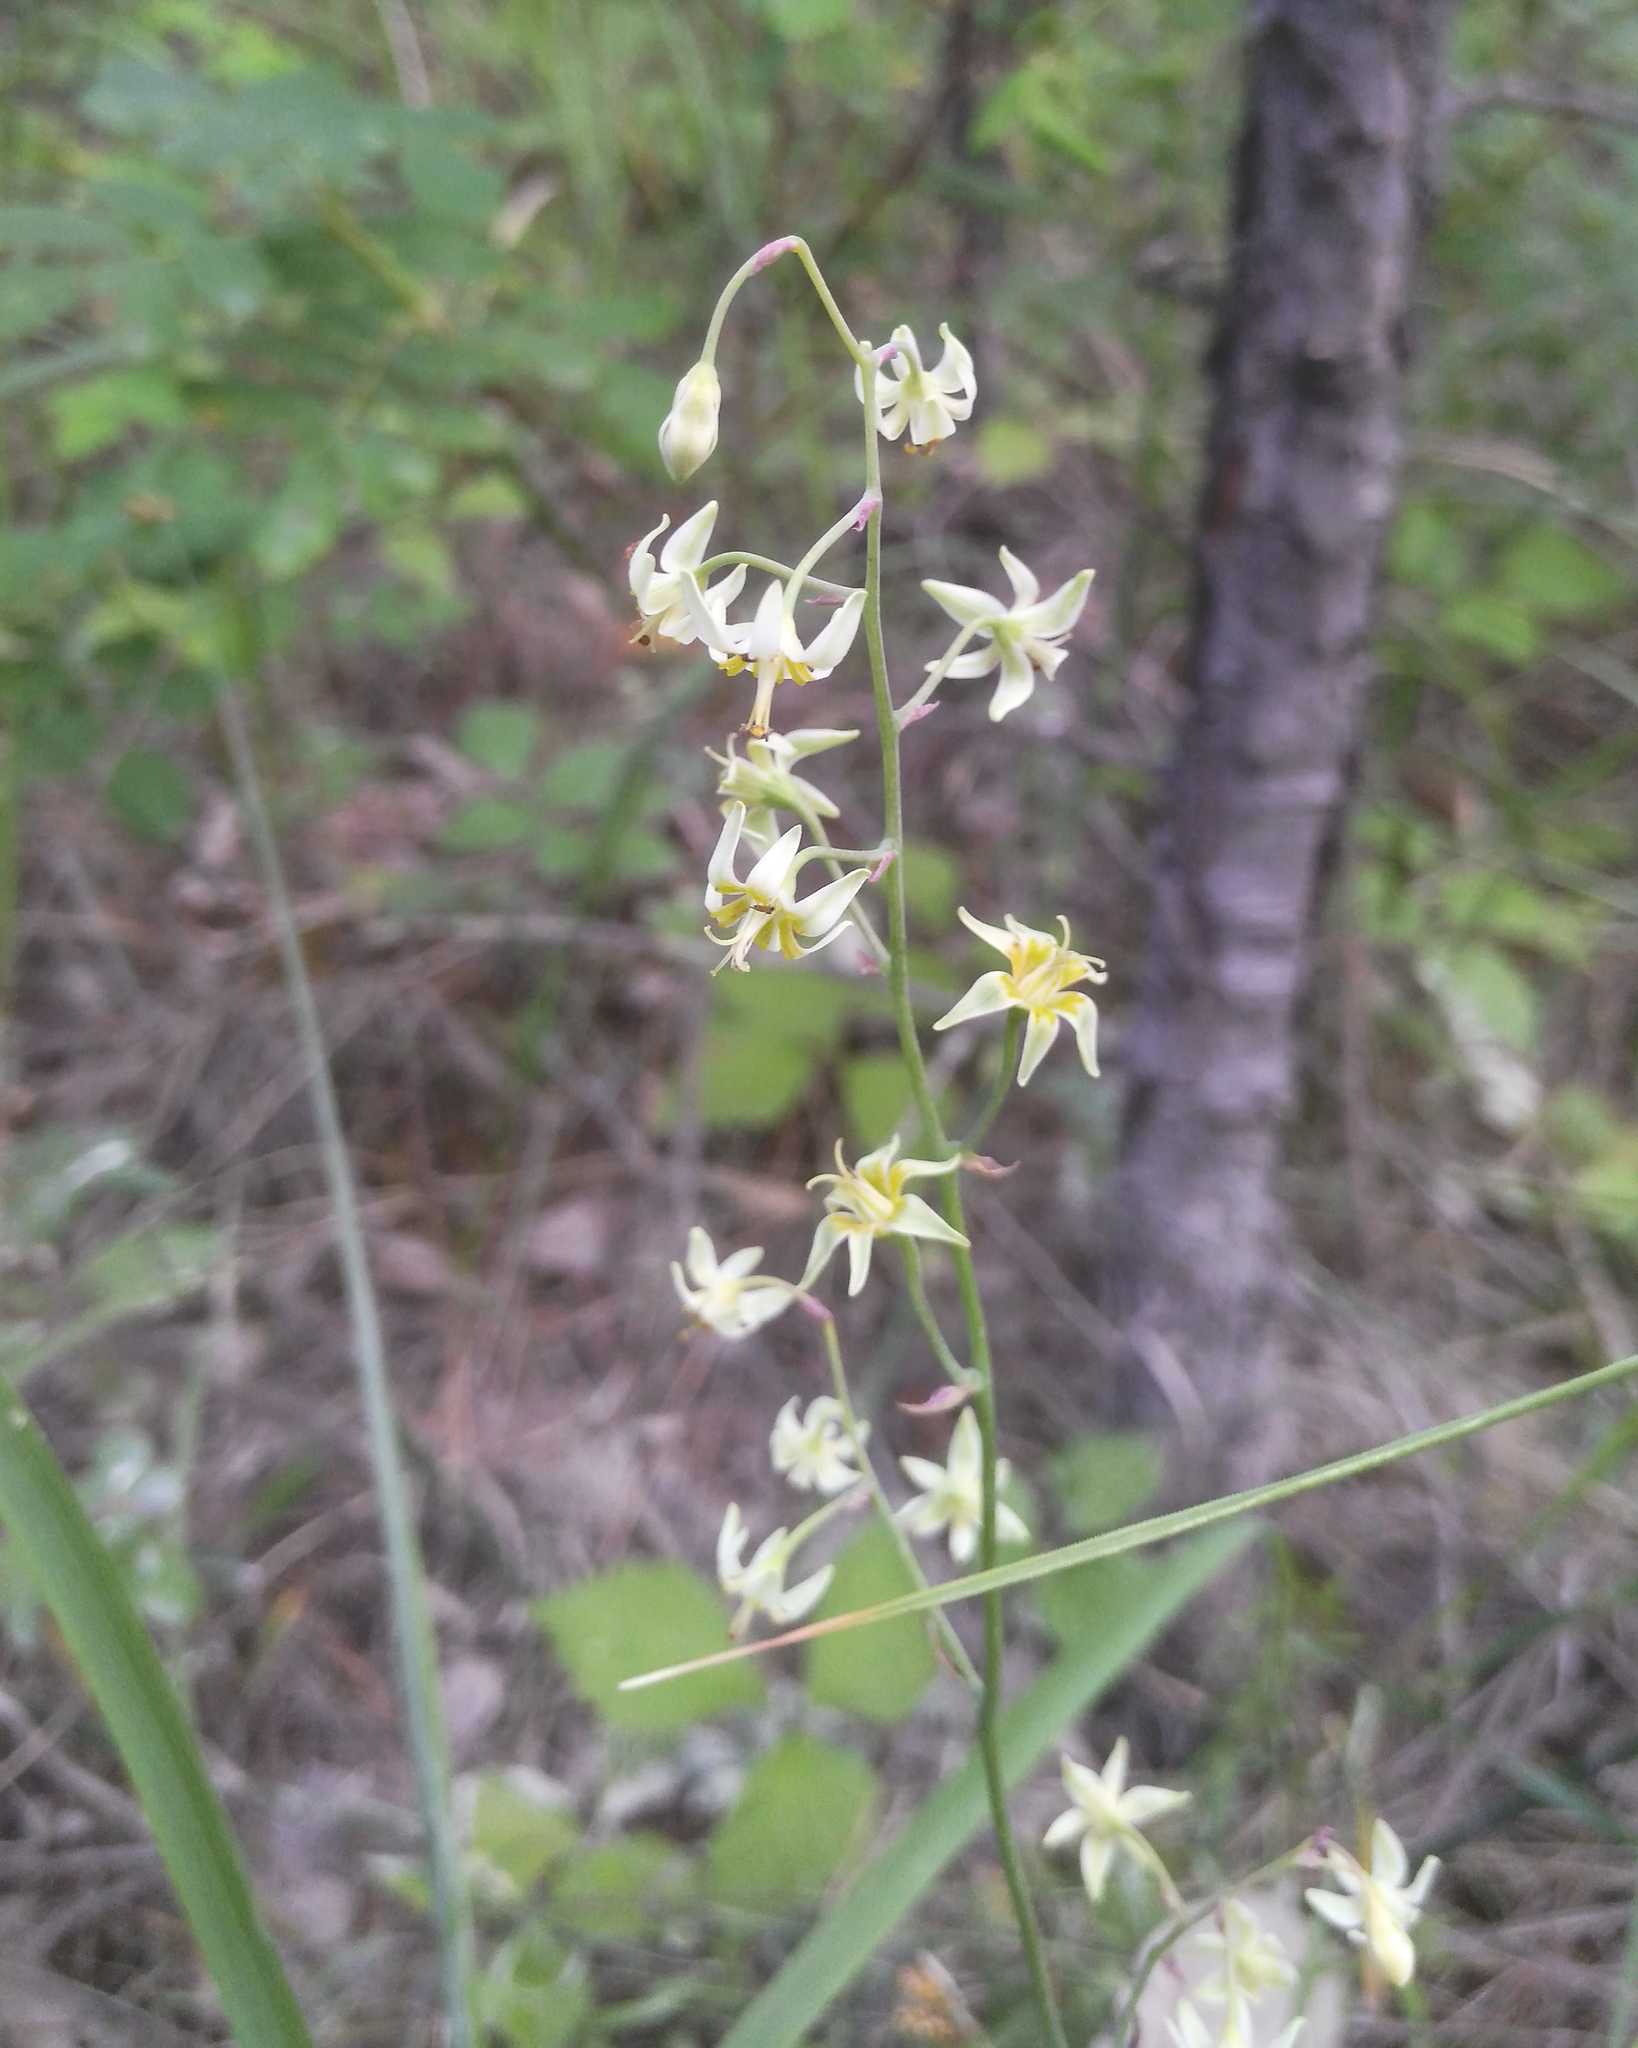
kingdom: Plantae
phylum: Tracheophyta
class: Liliopsida
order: Liliales
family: Melanthiaceae
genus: Anticlea
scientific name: Anticlea sibirica
